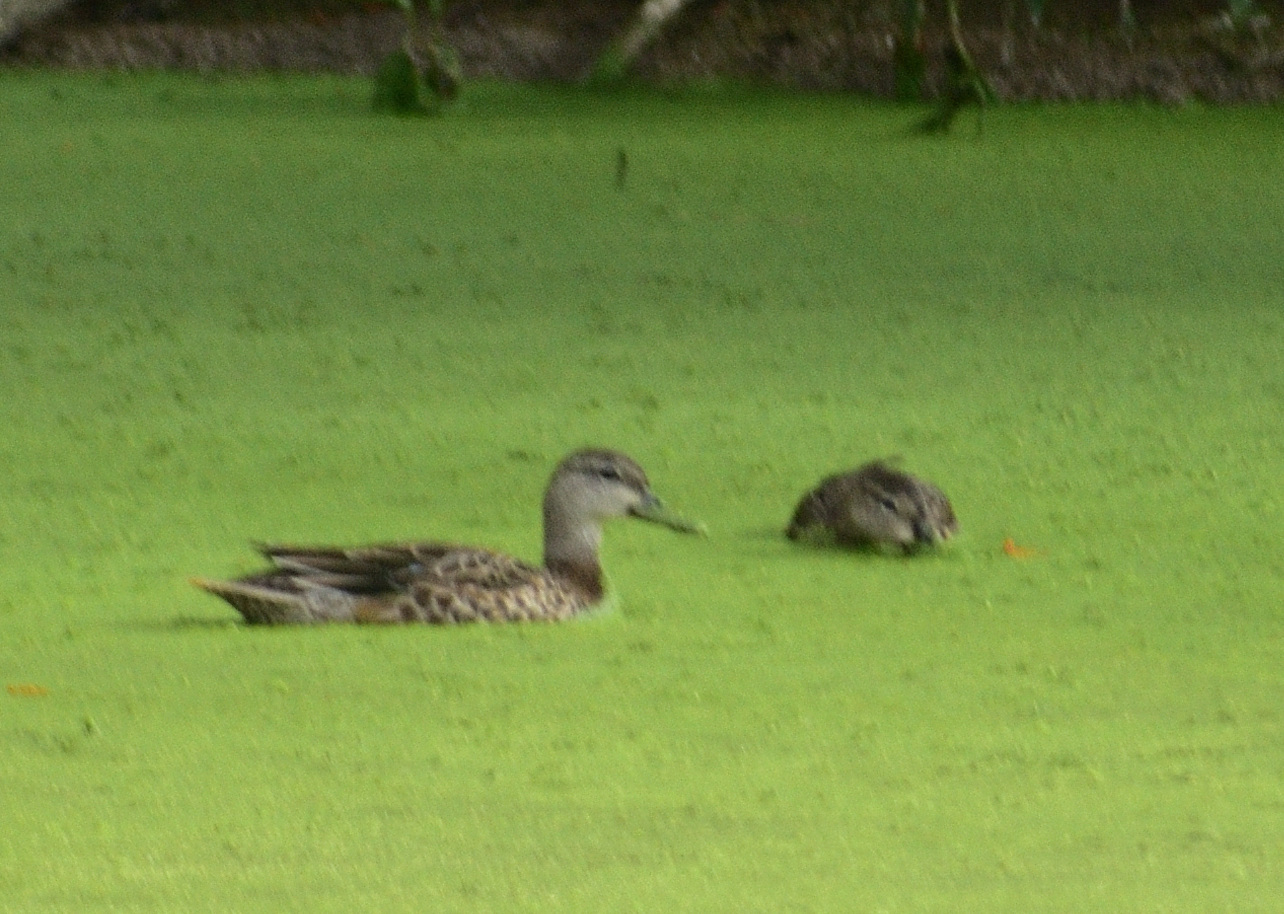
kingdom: Animalia
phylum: Chordata
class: Aves
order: Anseriformes
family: Anatidae
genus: Spatula
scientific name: Spatula discors
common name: Blue-winged teal
